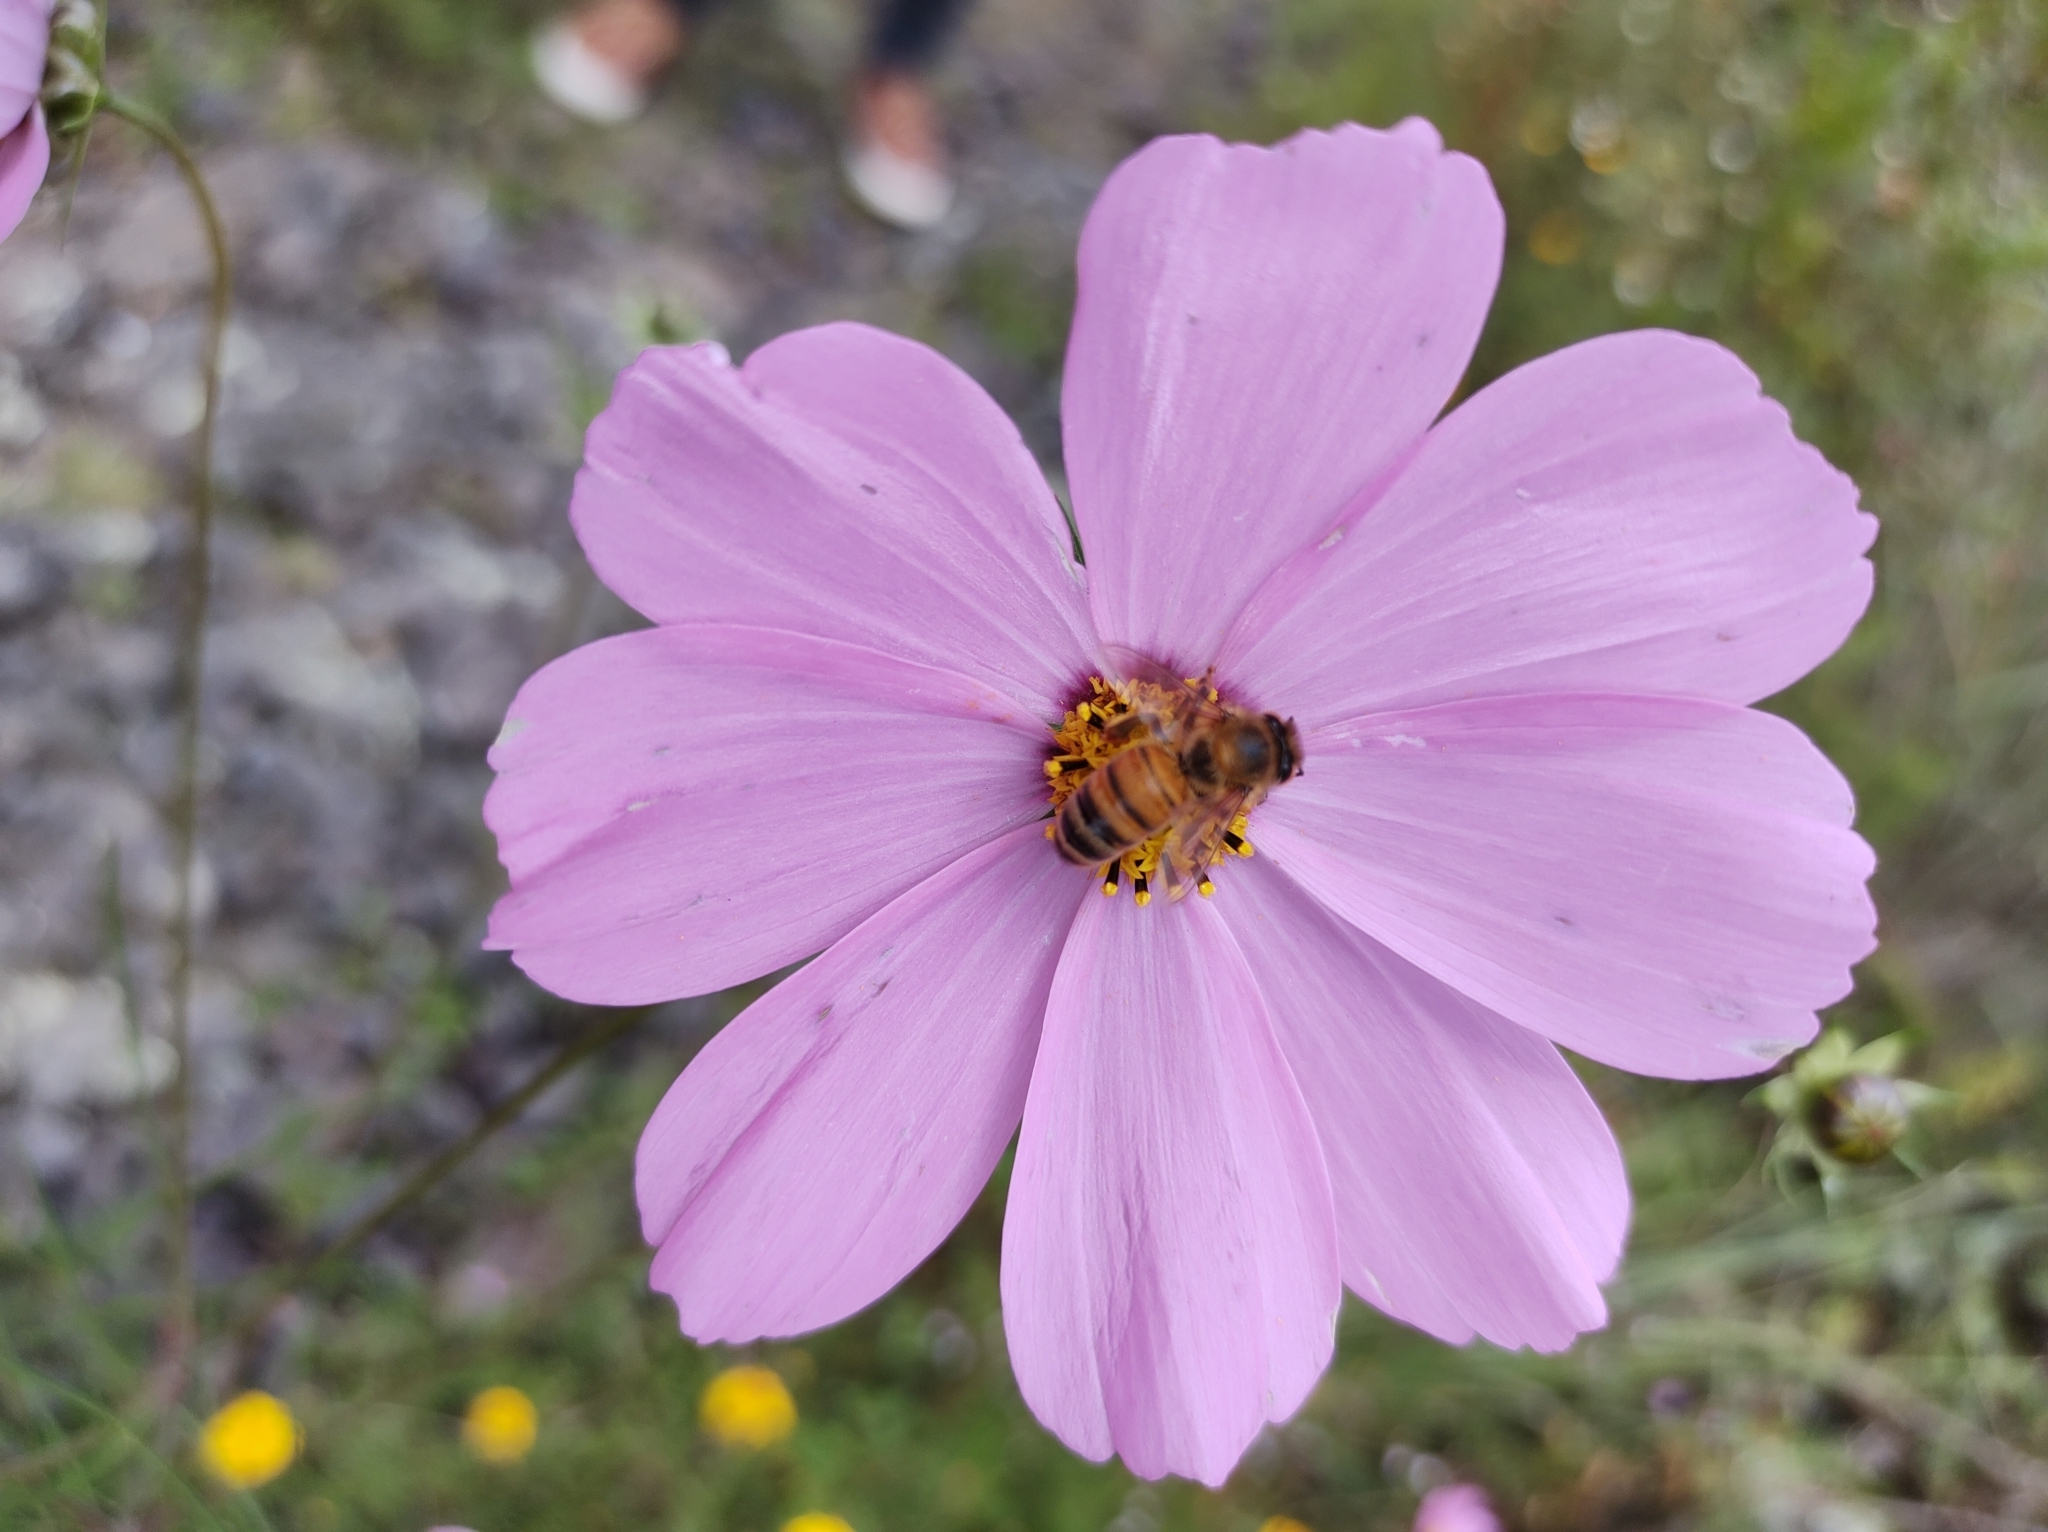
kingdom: Plantae
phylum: Tracheophyta
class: Magnoliopsida
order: Asterales
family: Asteraceae
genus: Cosmos
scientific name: Cosmos bipinnatus
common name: Garden cosmos
